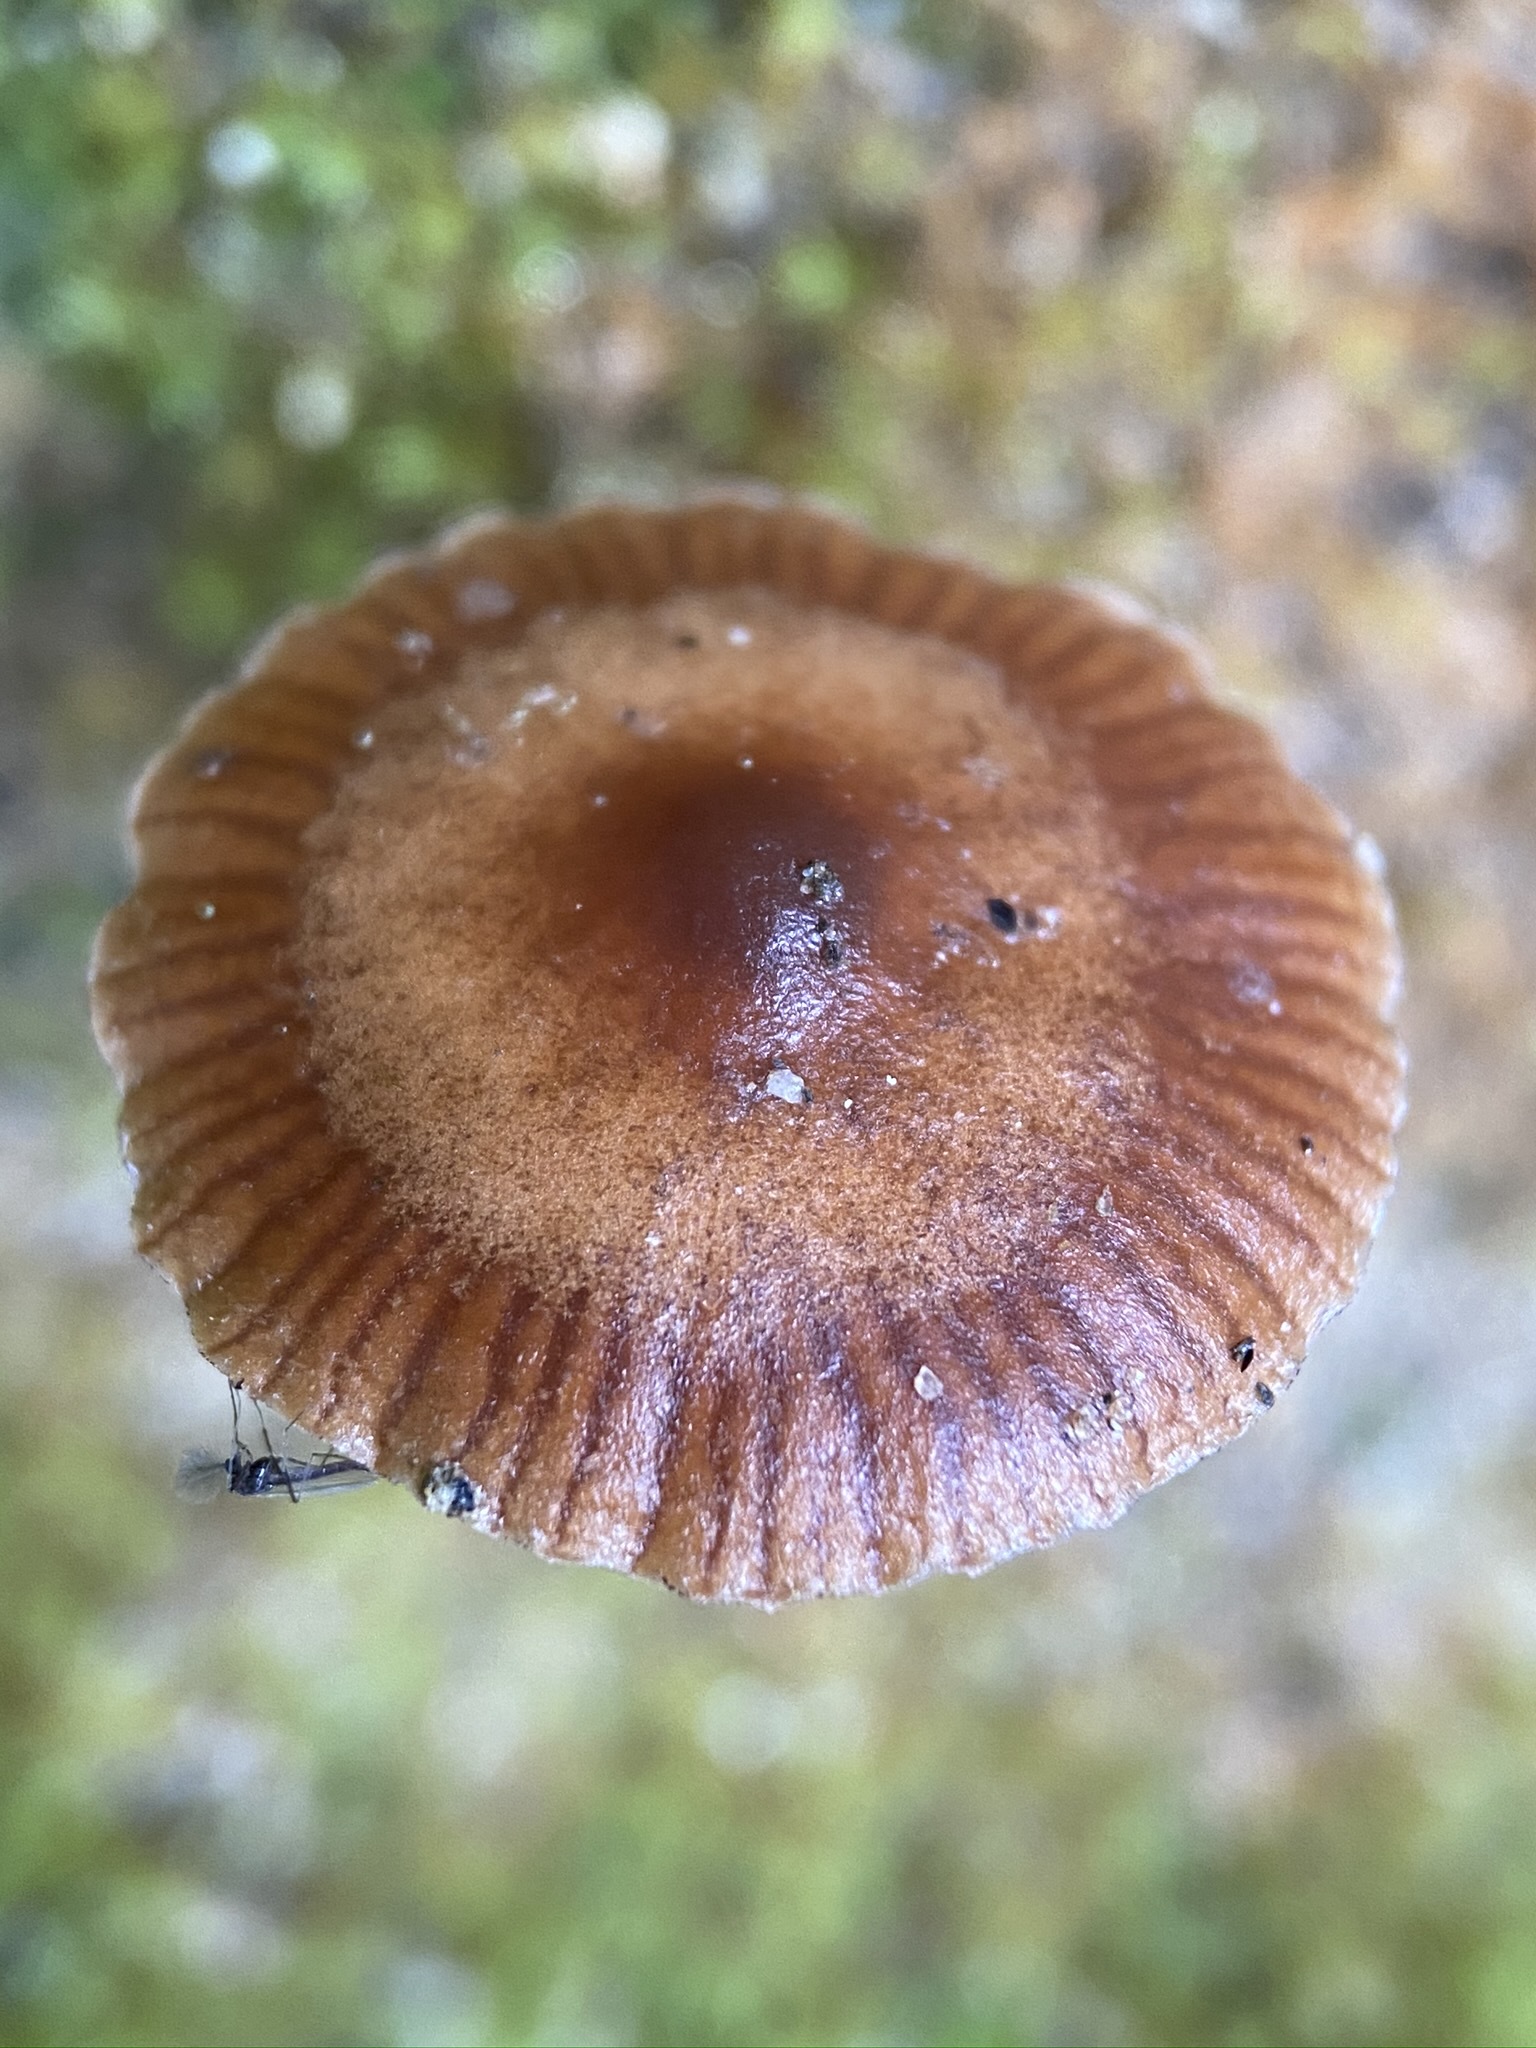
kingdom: Fungi
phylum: Basidiomycota
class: Agaricomycetes
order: Agaricales
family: Strophariaceae
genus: Deconica
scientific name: Deconica montana
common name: Mountain moss deconica
